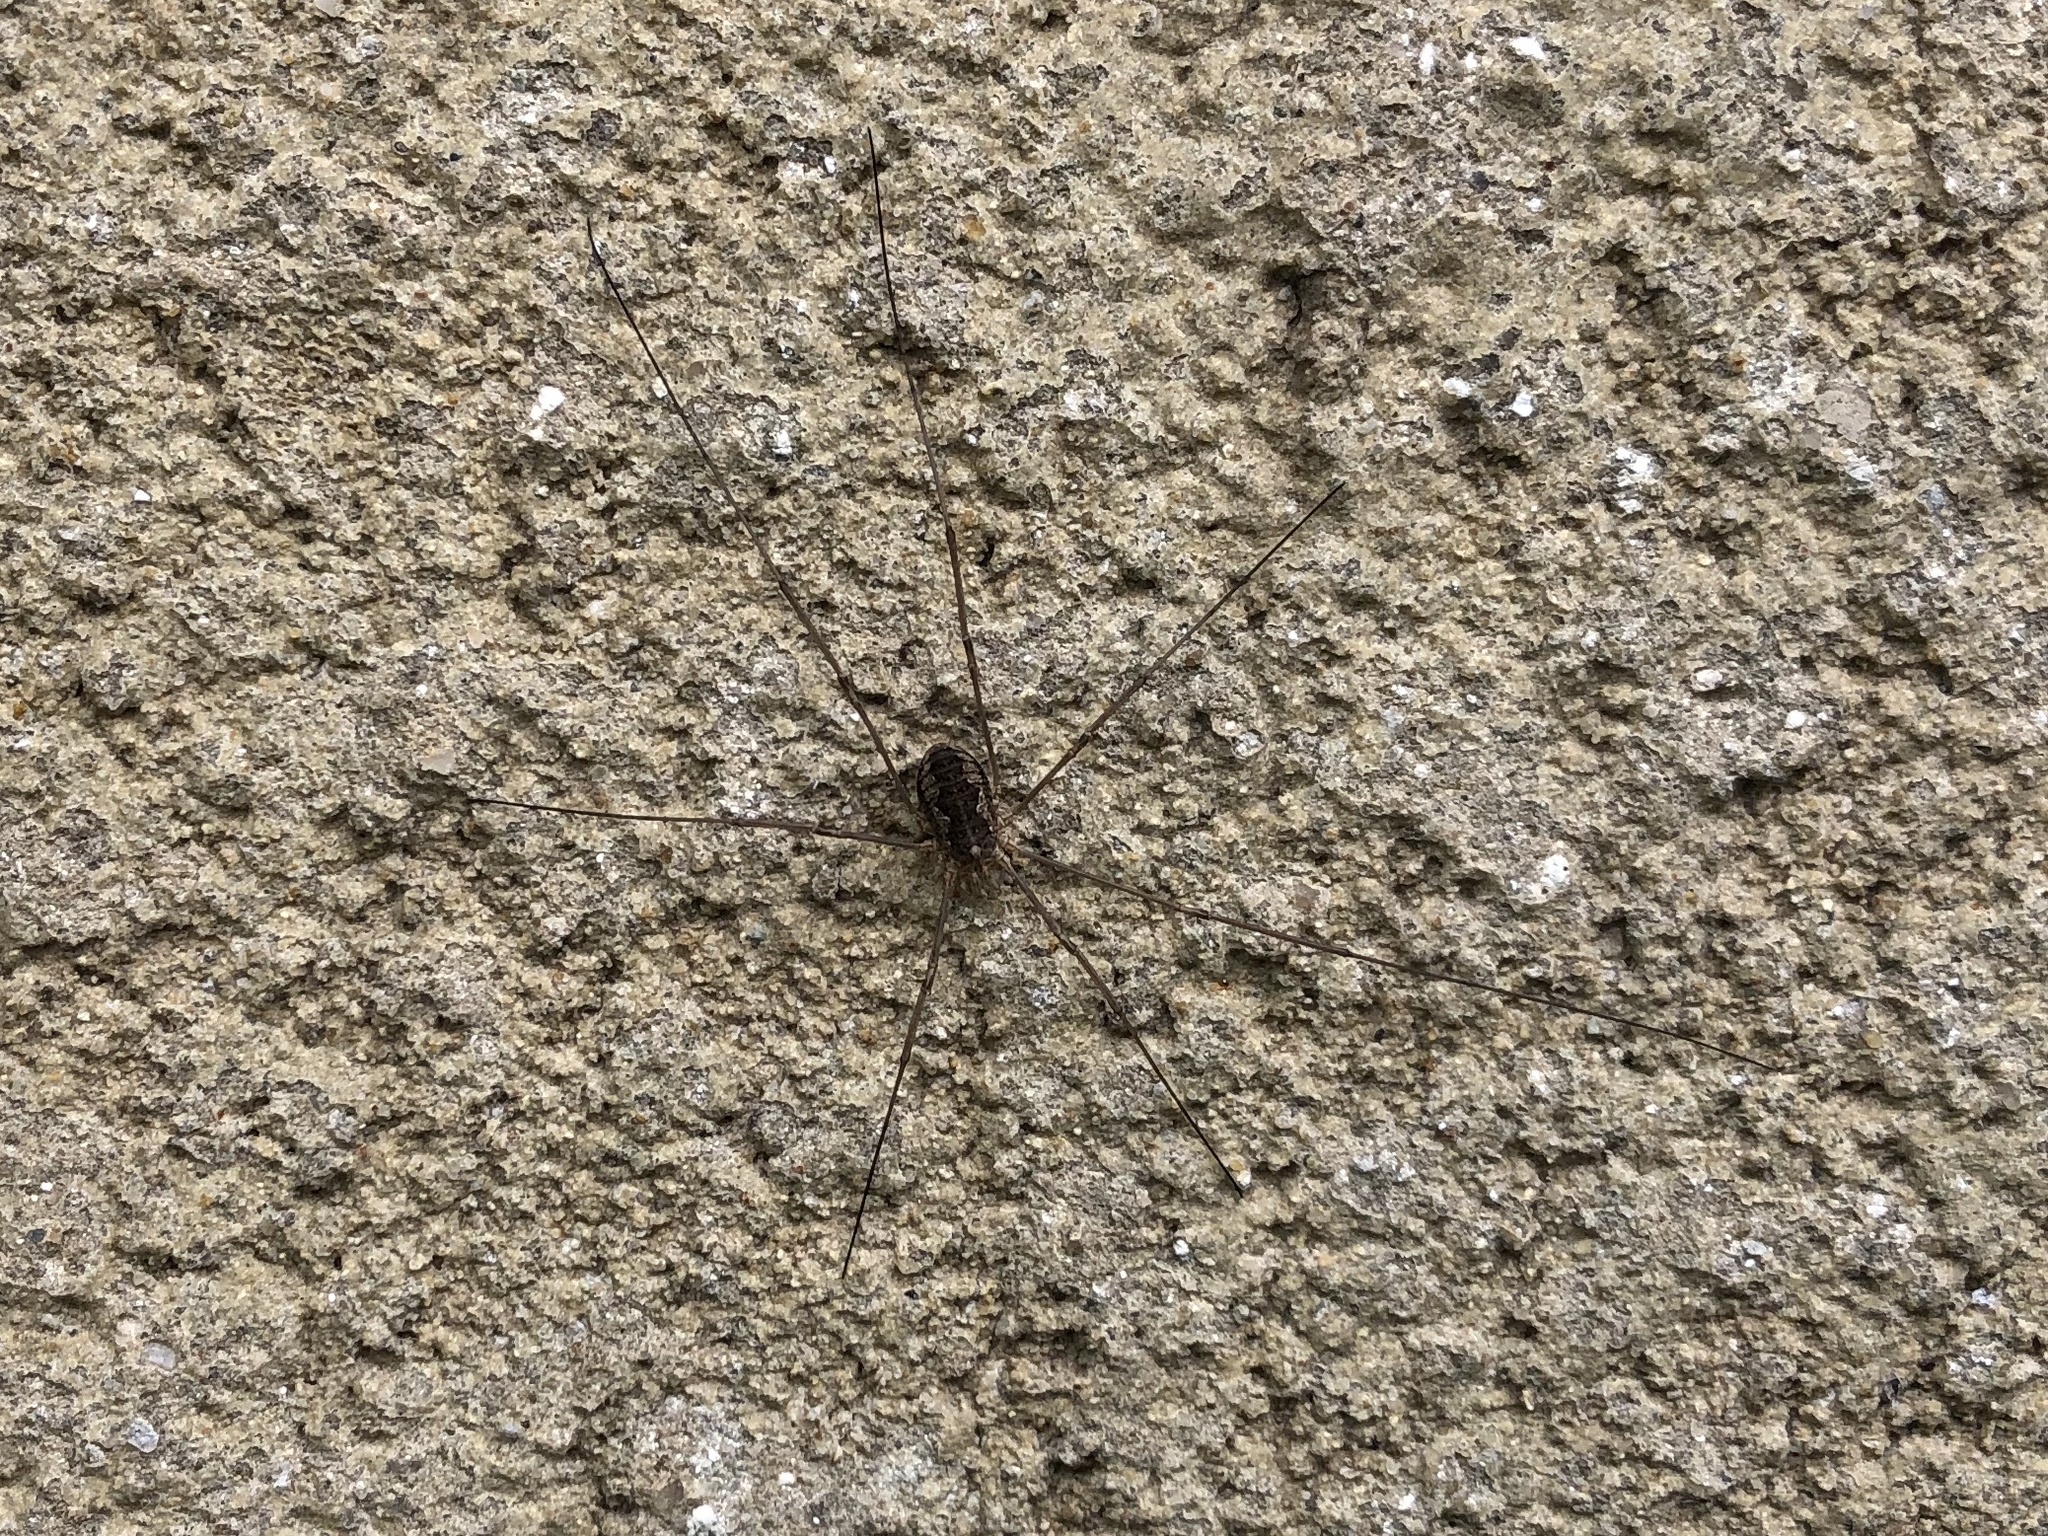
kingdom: Animalia
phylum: Arthropoda
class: Arachnida
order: Opiliones
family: Phalangiidae
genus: Phalangium
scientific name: Phalangium opilio
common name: Daddy longleg
